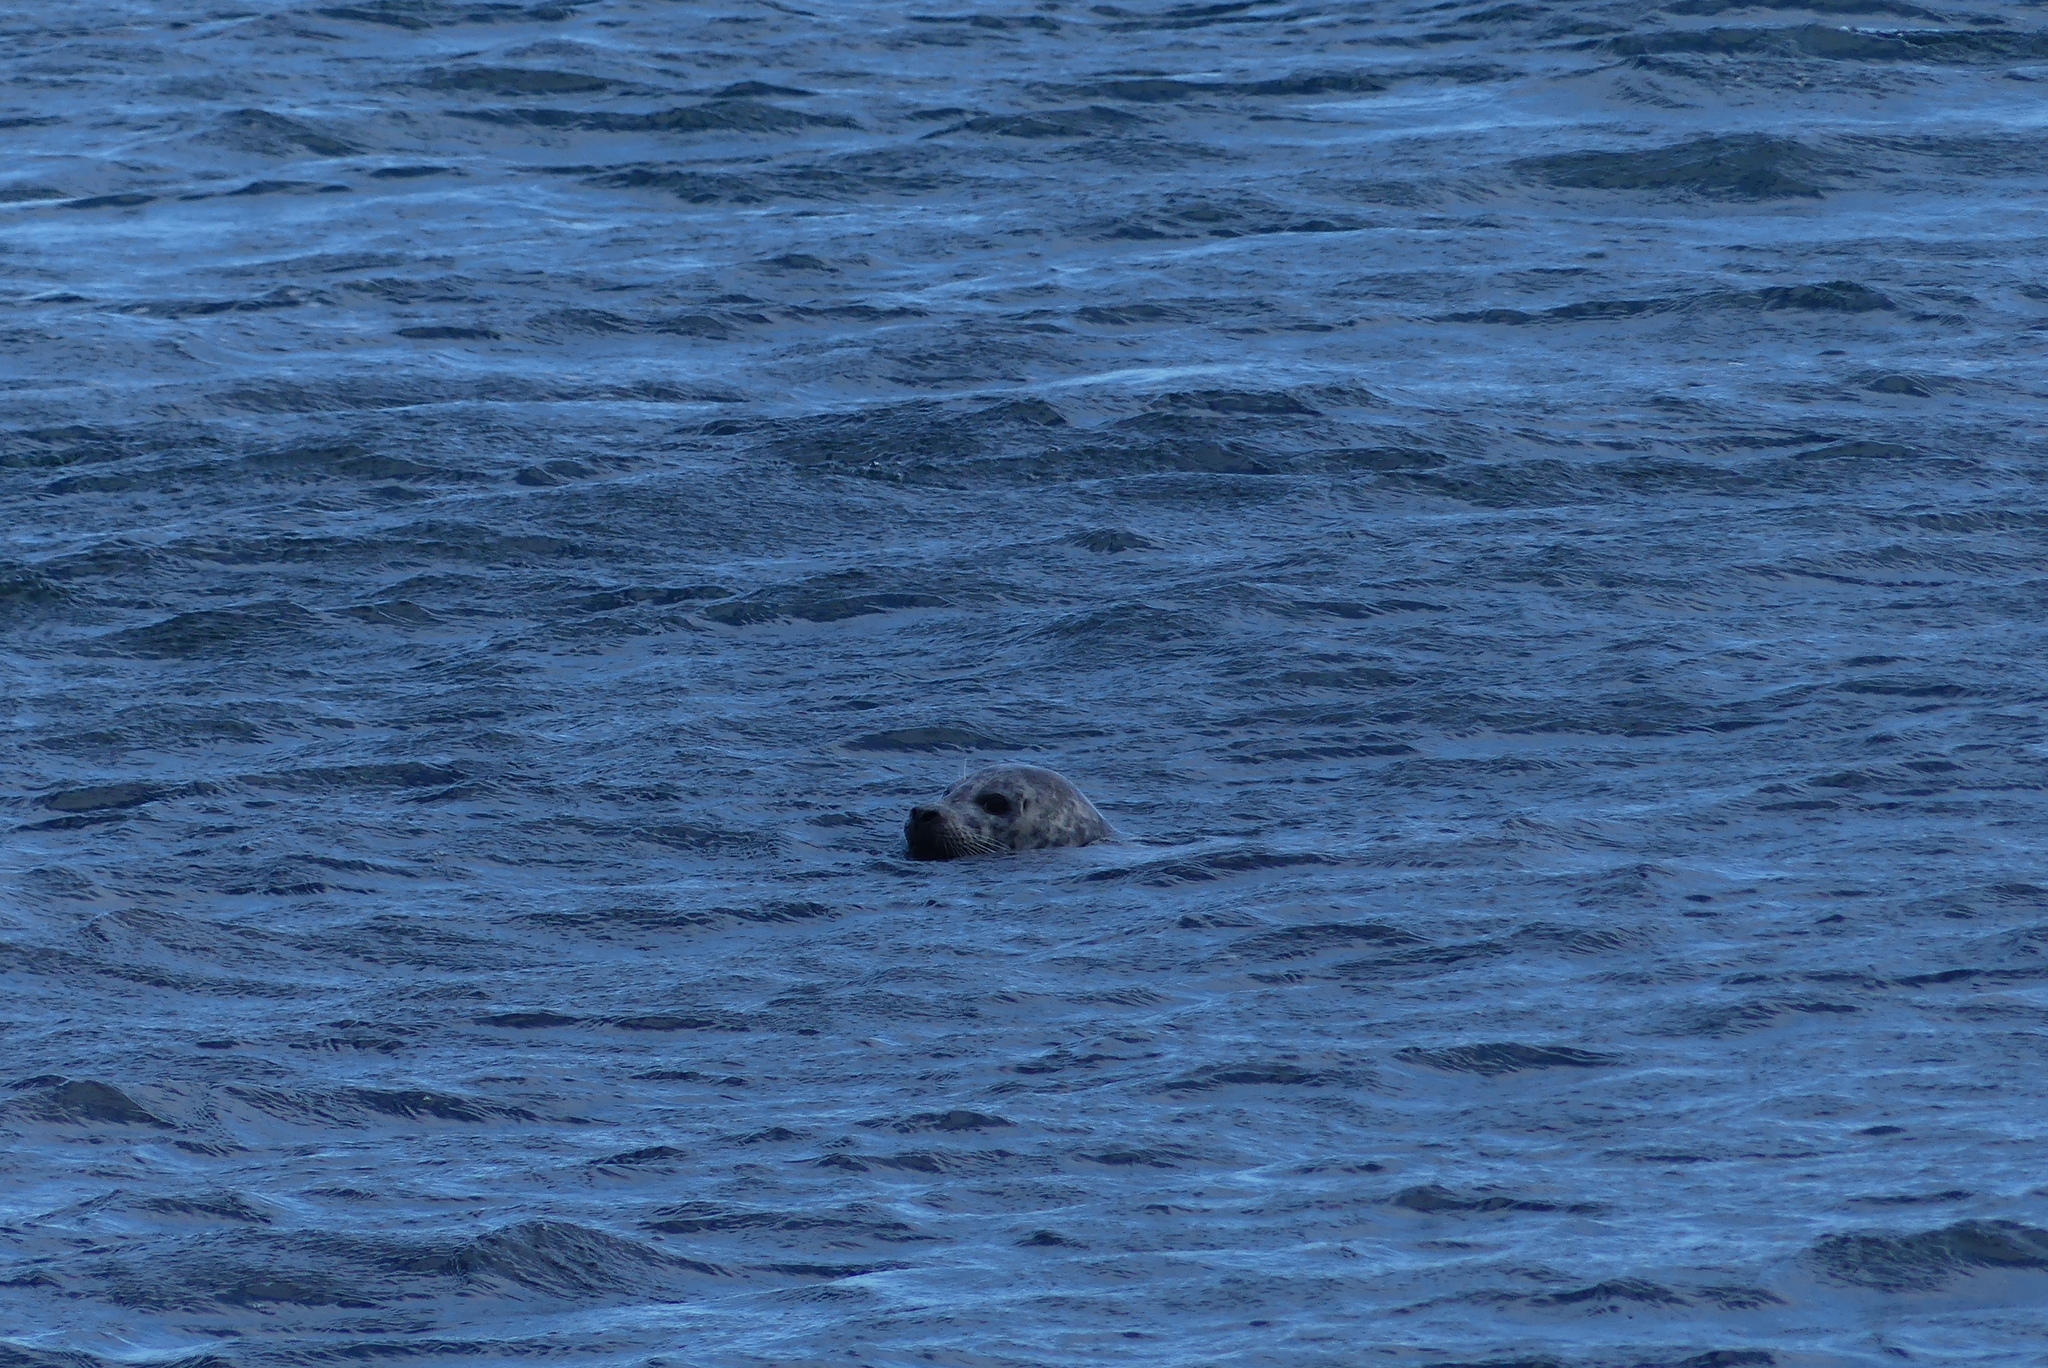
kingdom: Animalia
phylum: Chordata
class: Mammalia
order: Carnivora
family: Phocidae
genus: Phoca
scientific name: Phoca vitulina
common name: Harbor seal
